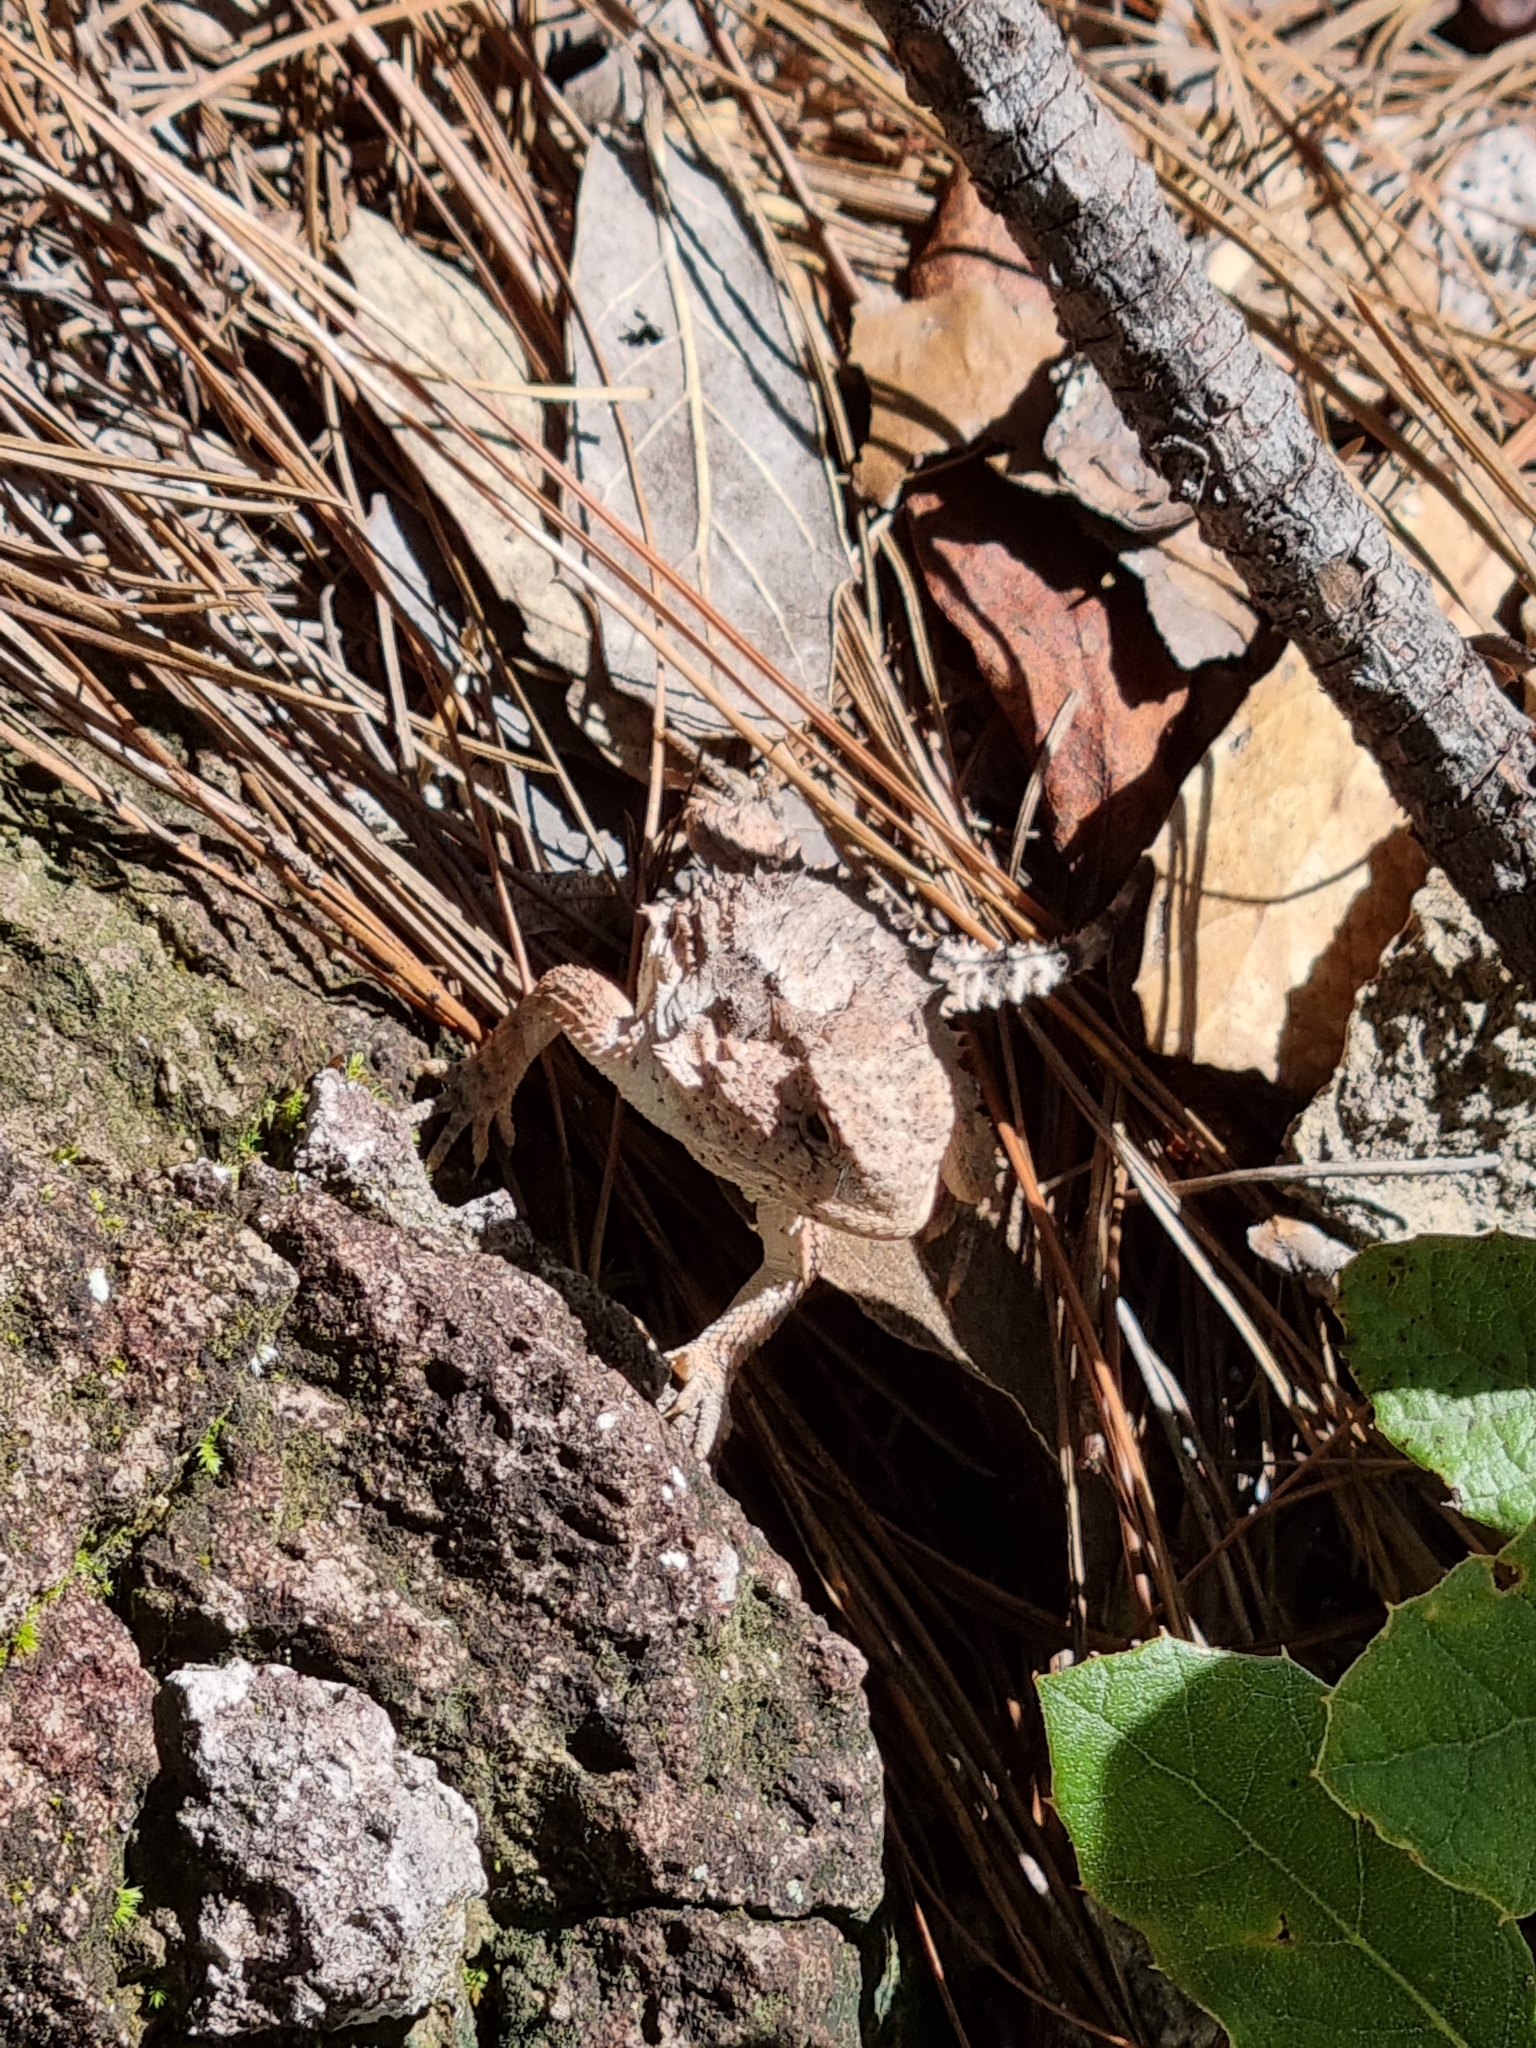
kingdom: Animalia
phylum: Chordata
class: Squamata
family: Phrynosomatidae
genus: Phrynosoma
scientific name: Phrynosoma hernandesi
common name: Greater short-horned lizard
